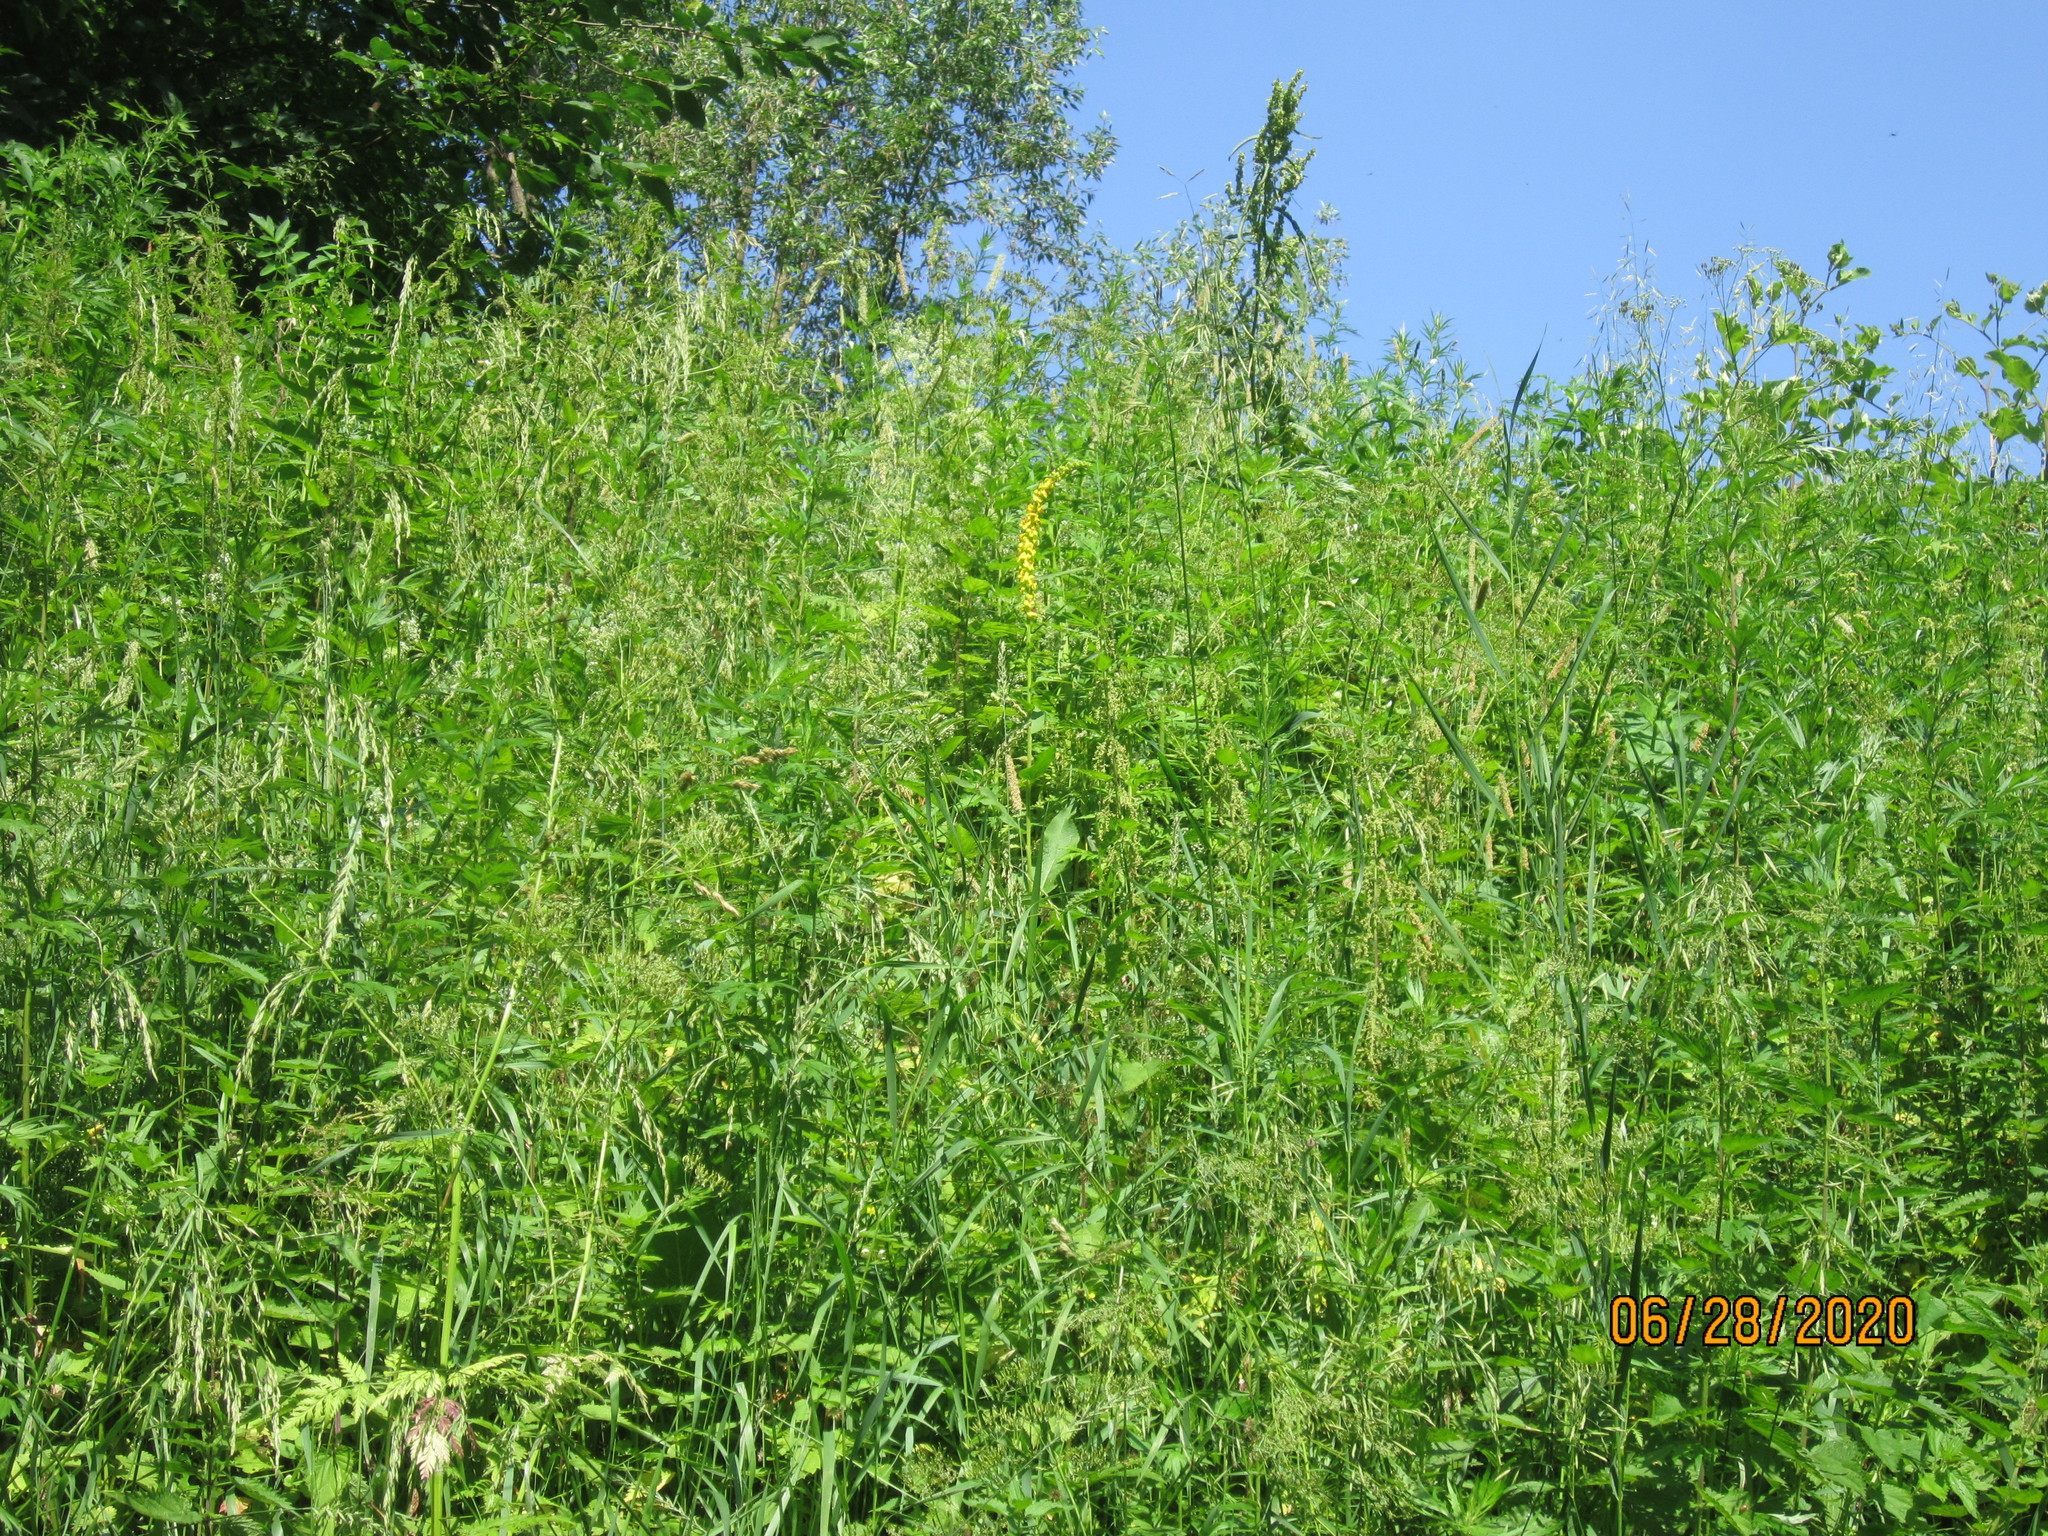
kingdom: Plantae
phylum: Tracheophyta
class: Magnoliopsida
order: Lamiales
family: Scrophulariaceae
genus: Verbascum
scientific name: Verbascum nigrum
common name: Dark mullein
